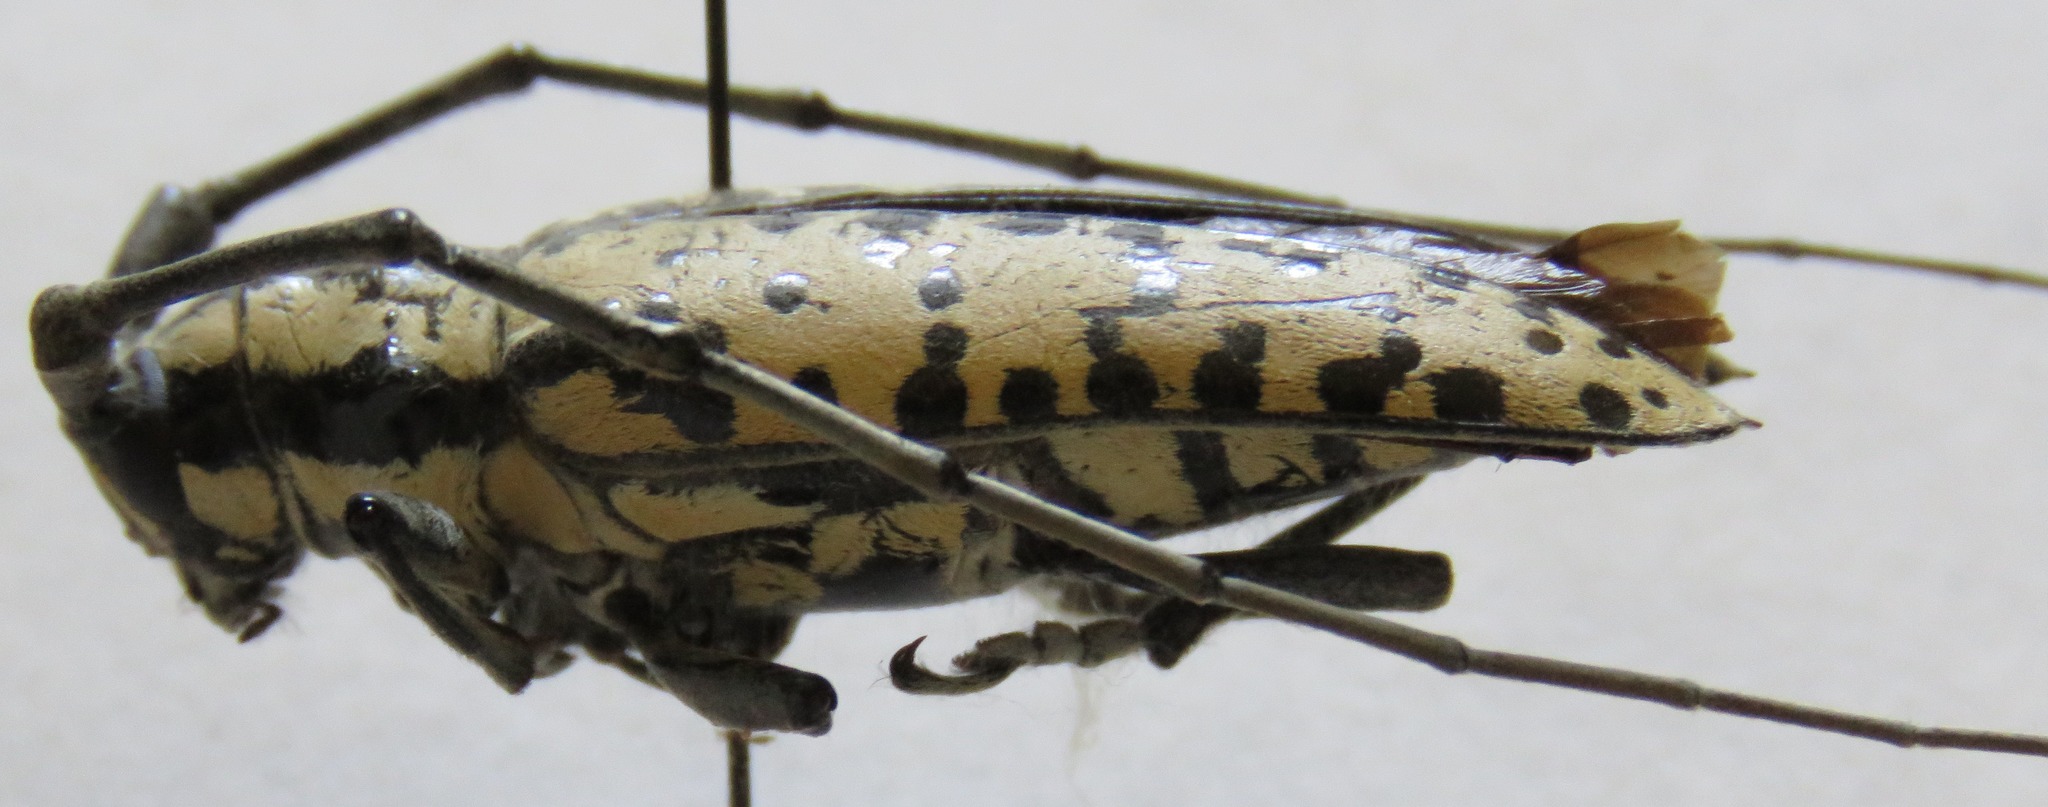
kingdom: Animalia
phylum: Arthropoda
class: Insecta
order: Coleoptera
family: Cerambycidae
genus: Deliathis
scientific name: Deliathis nivea
